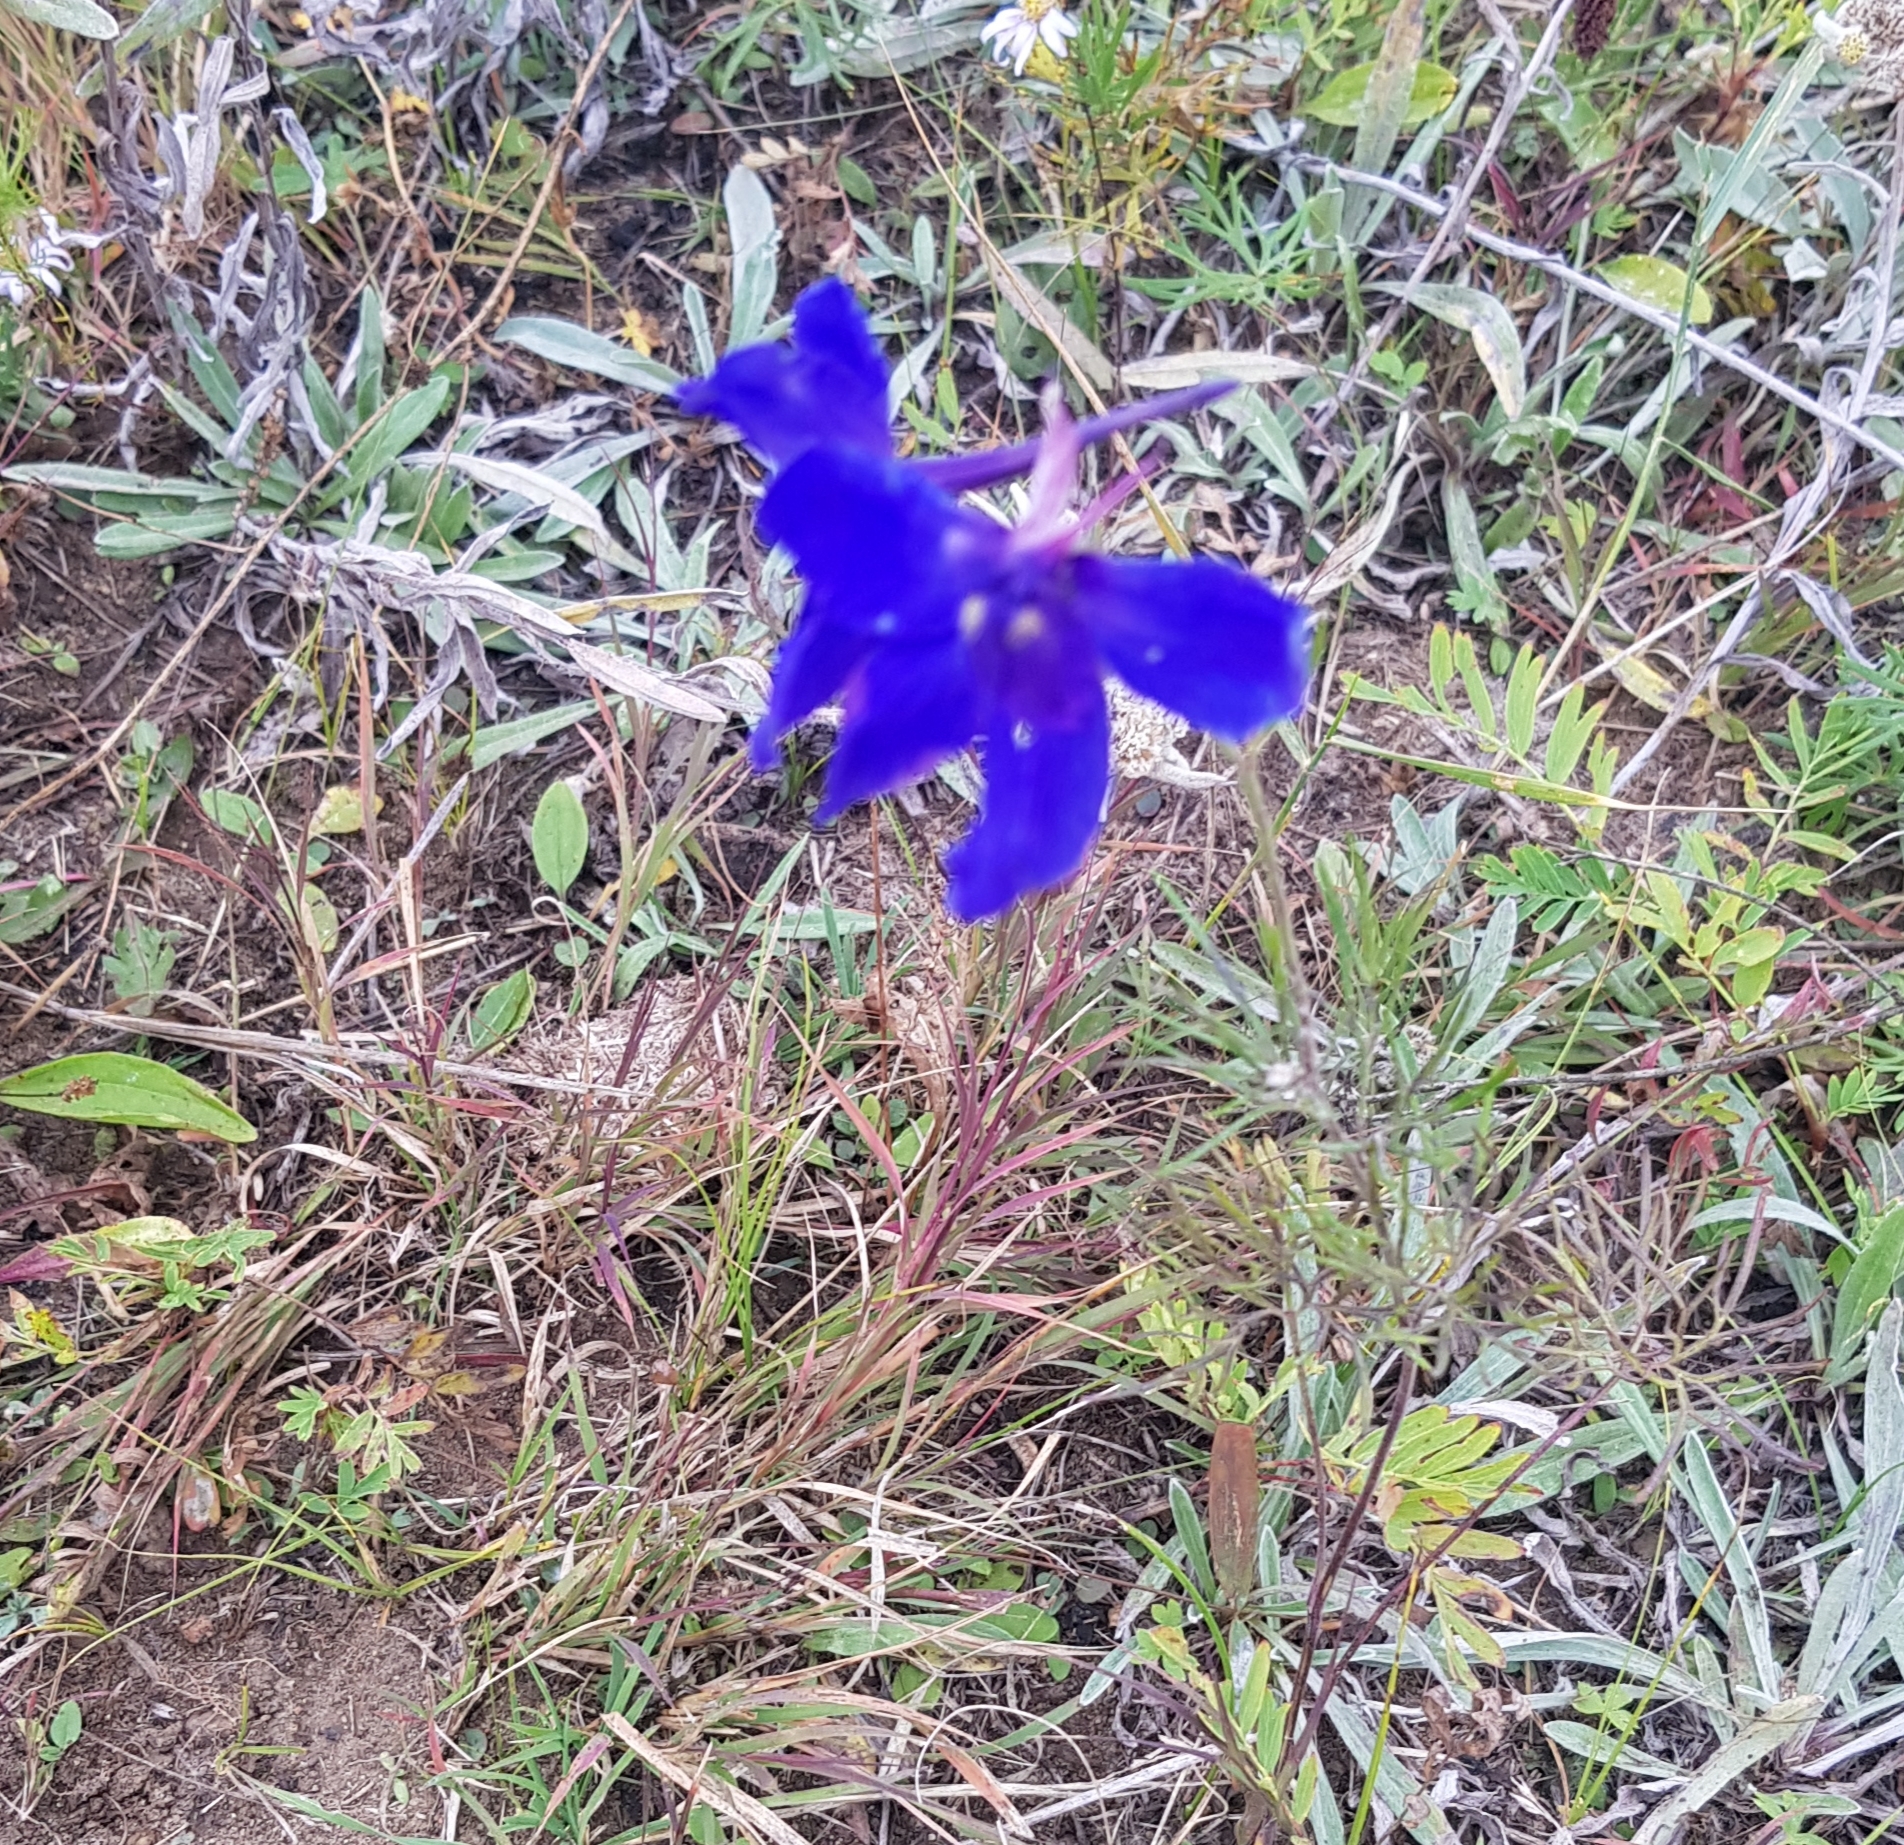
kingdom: Plantae
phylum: Tracheophyta
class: Magnoliopsida
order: Ranunculales
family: Ranunculaceae
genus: Delphinium
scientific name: Delphinium grandiflorum
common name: Siberian larkspur
